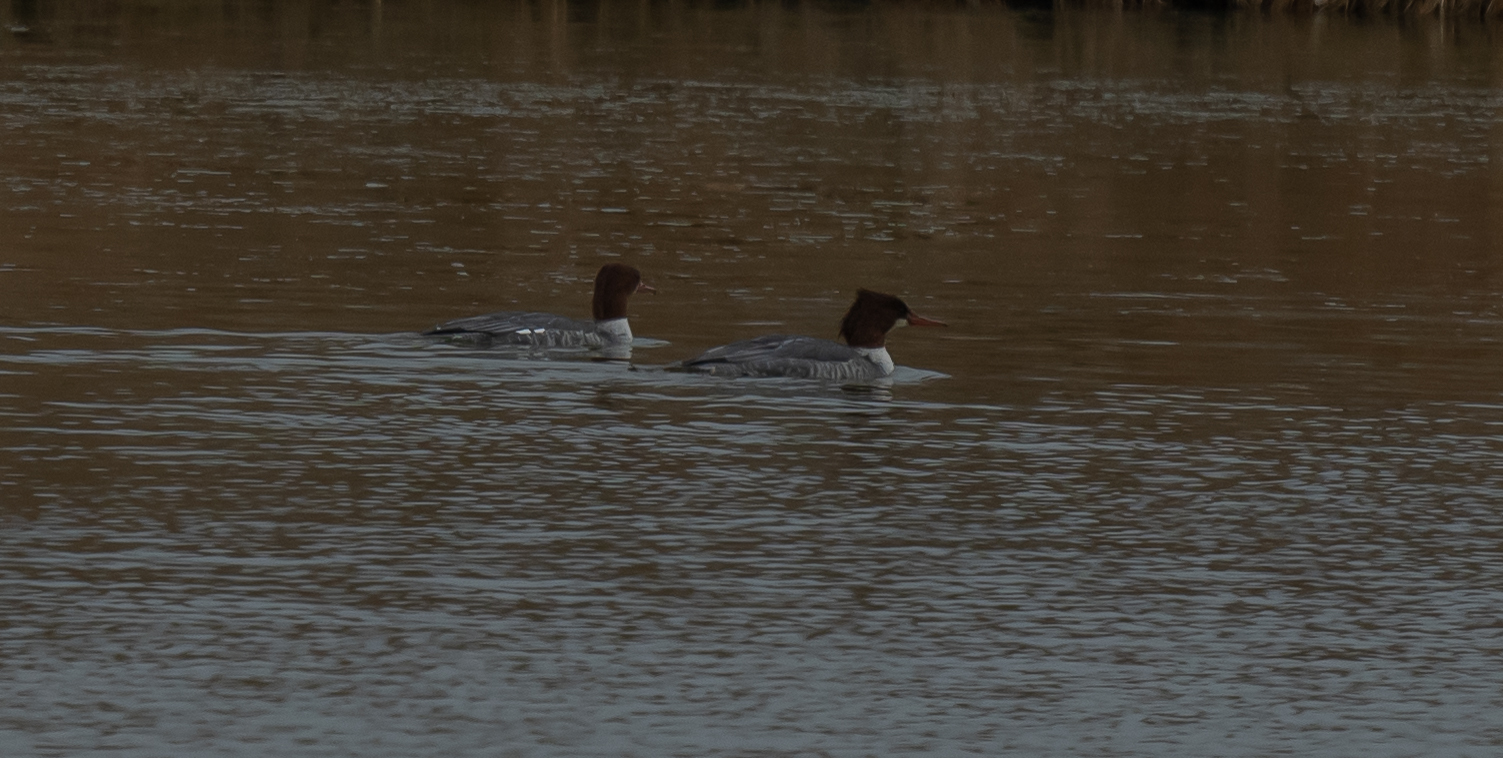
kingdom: Animalia
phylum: Chordata
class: Aves
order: Anseriformes
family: Anatidae
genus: Mergus
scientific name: Mergus merganser
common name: Common merganser
